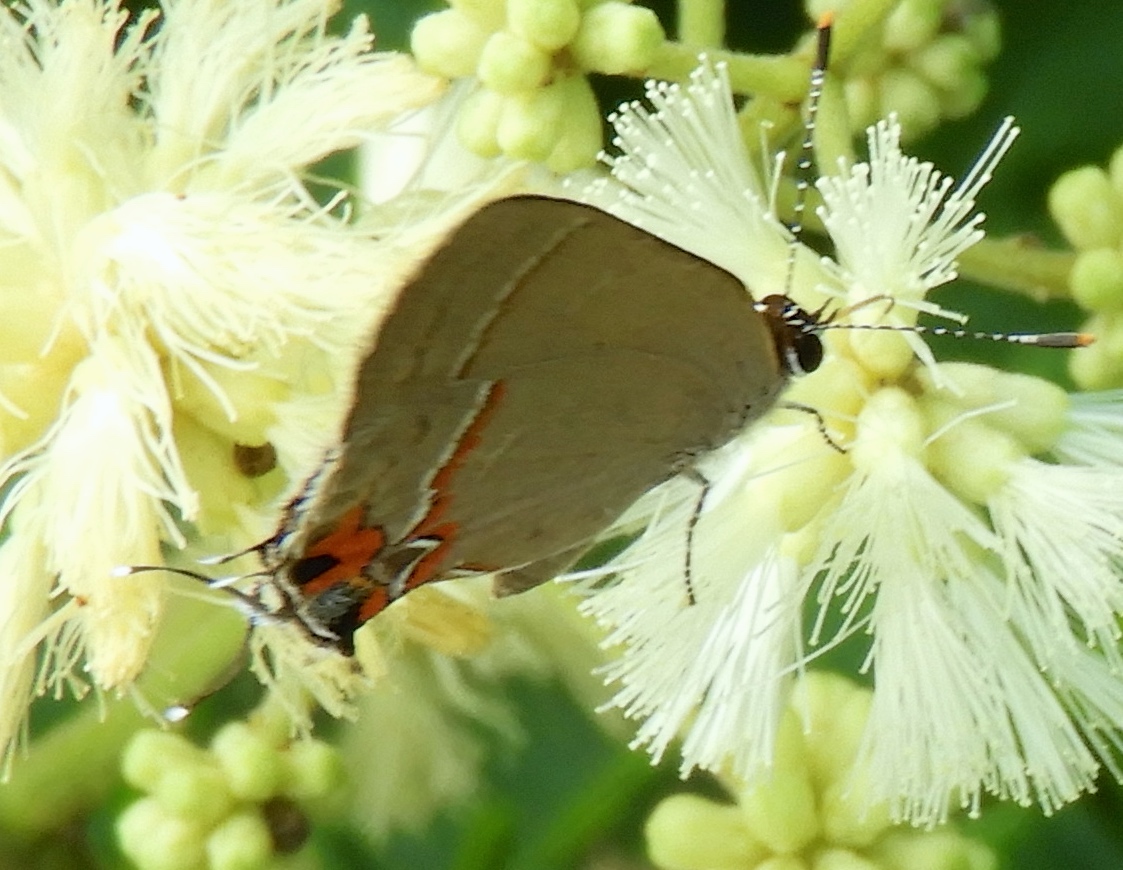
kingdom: Animalia
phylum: Arthropoda
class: Insecta
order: Lepidoptera
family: Lycaenidae
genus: Electrostrymon
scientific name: Electrostrymon endymion
